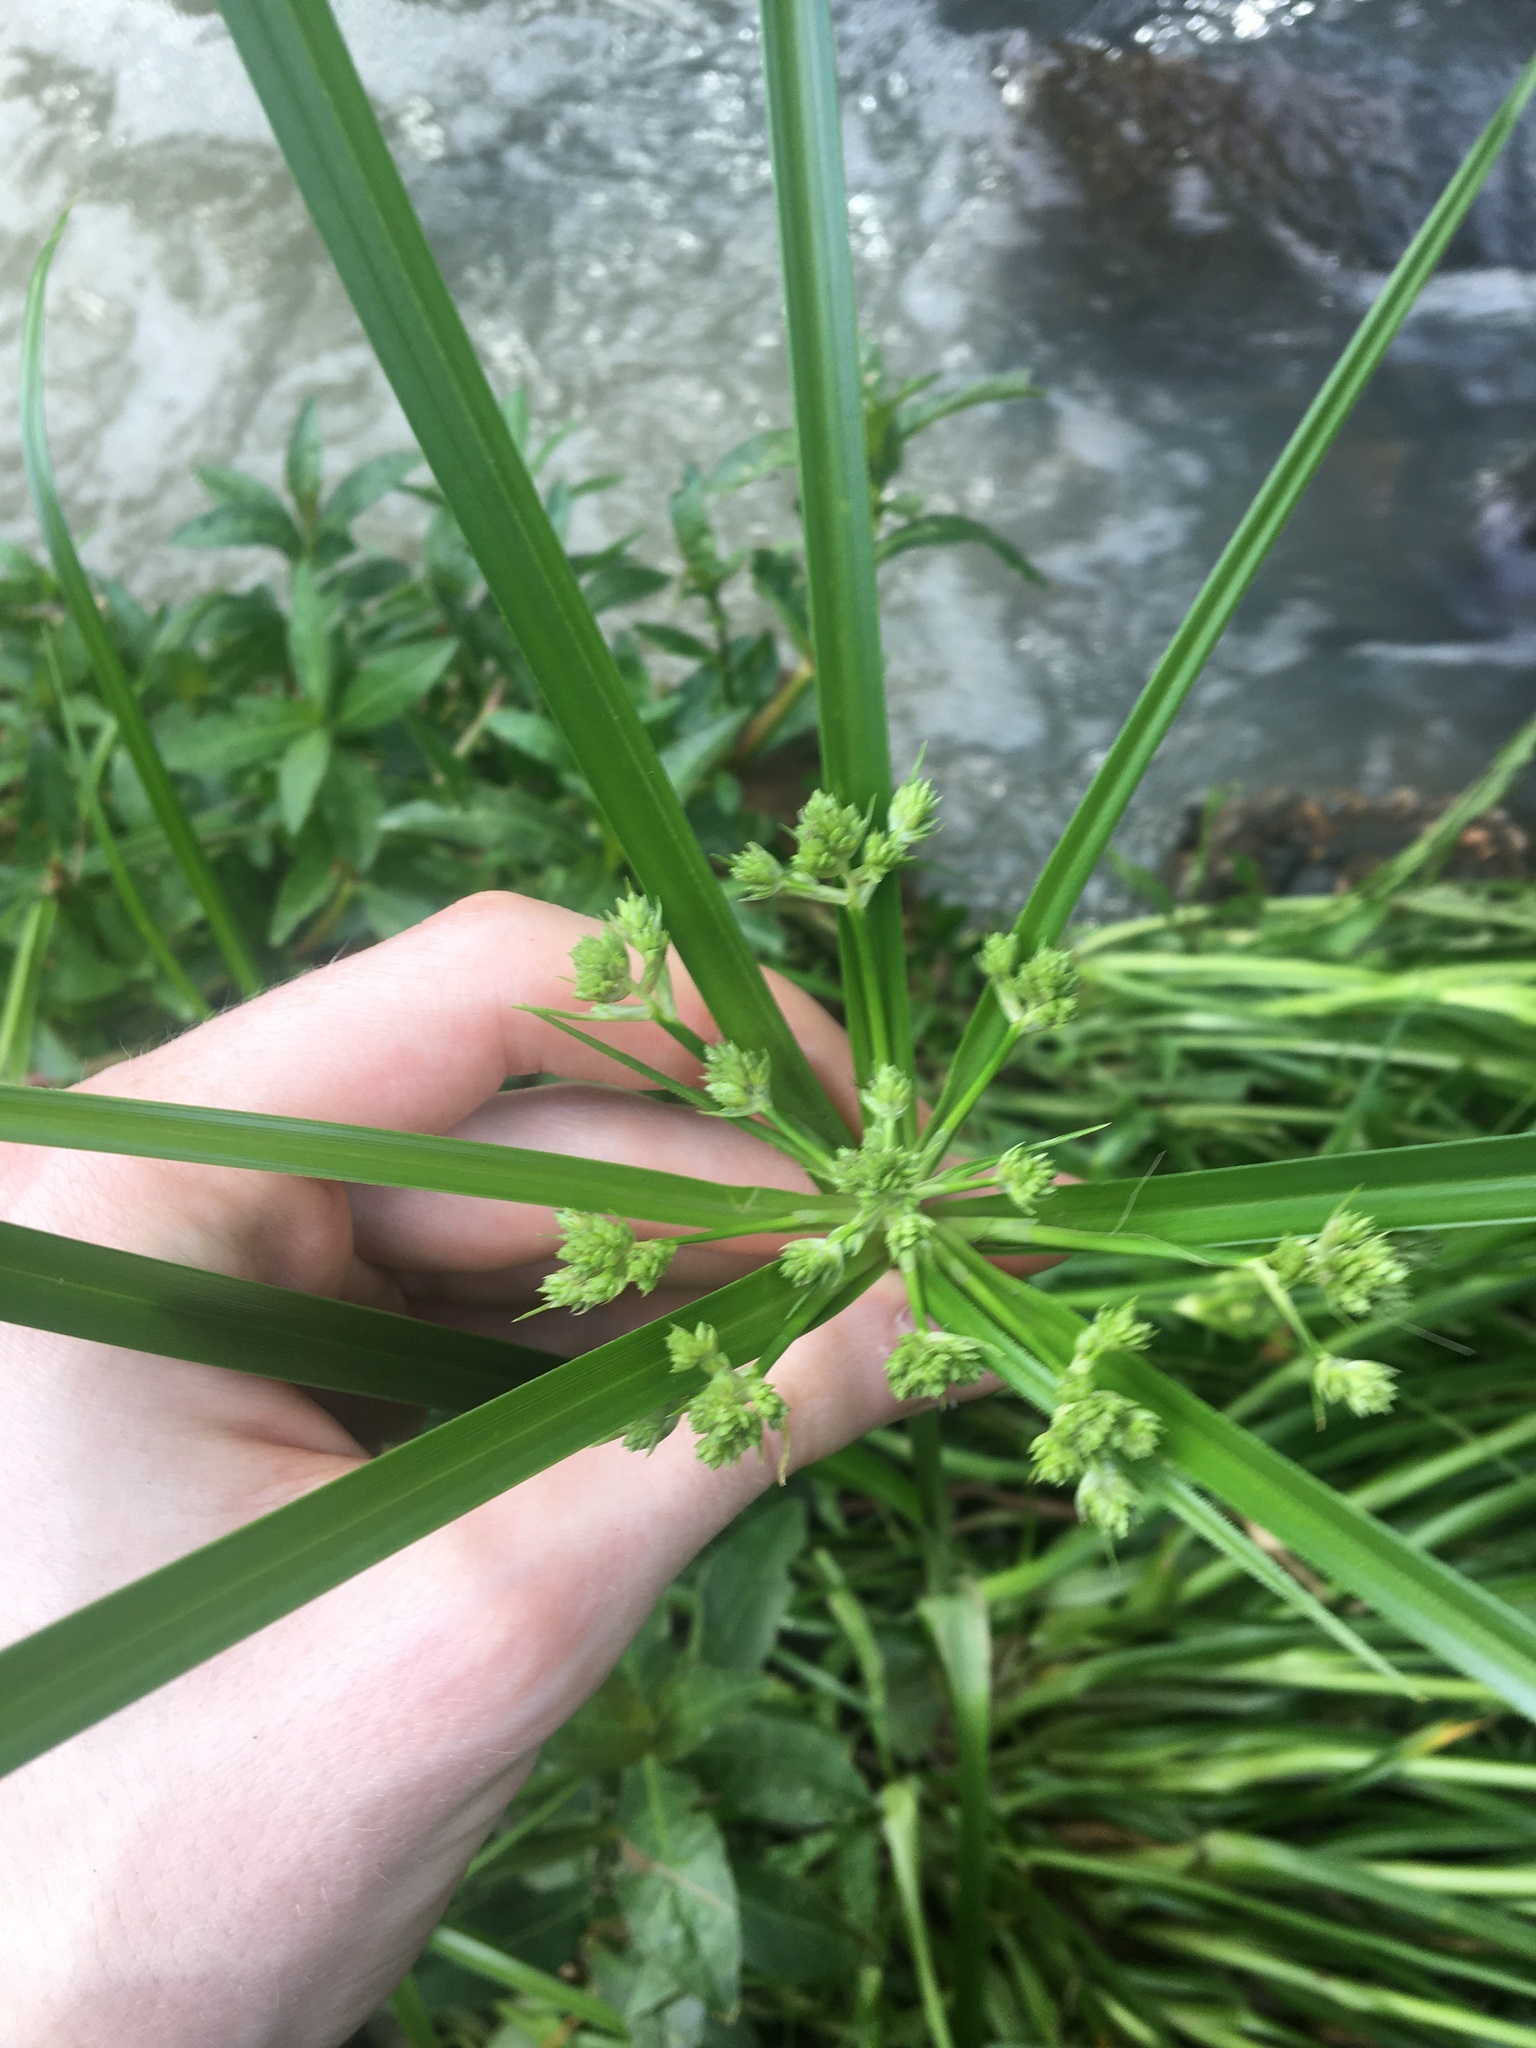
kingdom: Plantae
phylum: Tracheophyta
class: Liliopsida
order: Poales
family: Cyperaceae
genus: Cyperus
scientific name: Cyperus eragrostis
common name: Tall flatsedge
